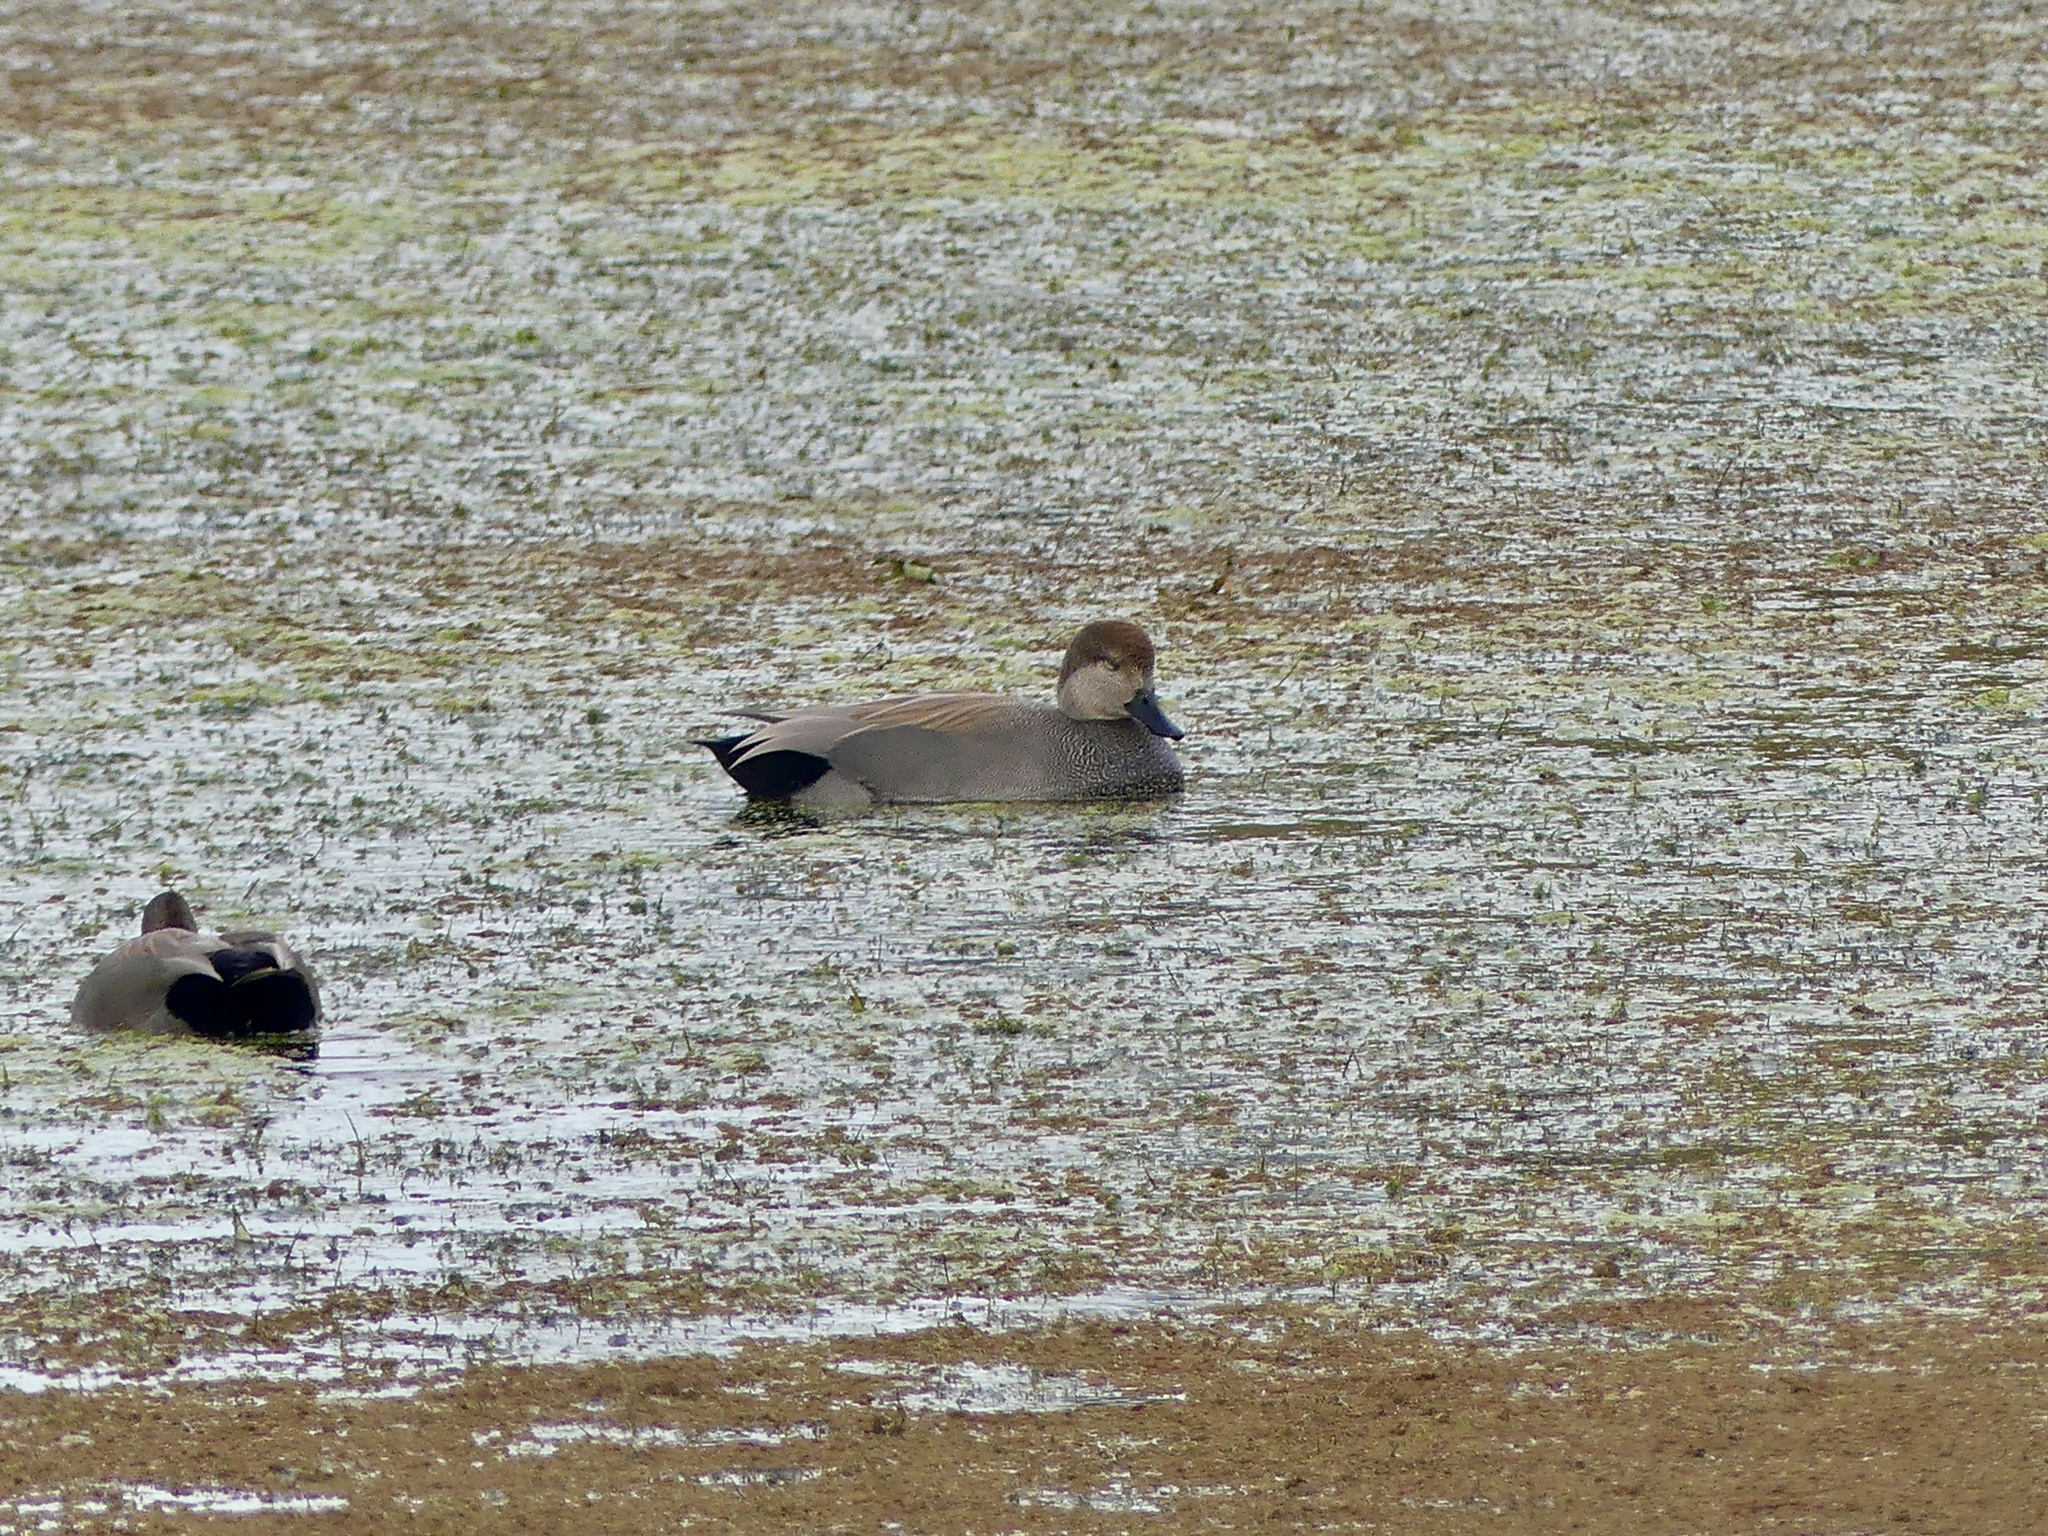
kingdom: Animalia
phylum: Chordata
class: Aves
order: Anseriformes
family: Anatidae
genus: Mareca
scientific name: Mareca strepera
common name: Gadwall
